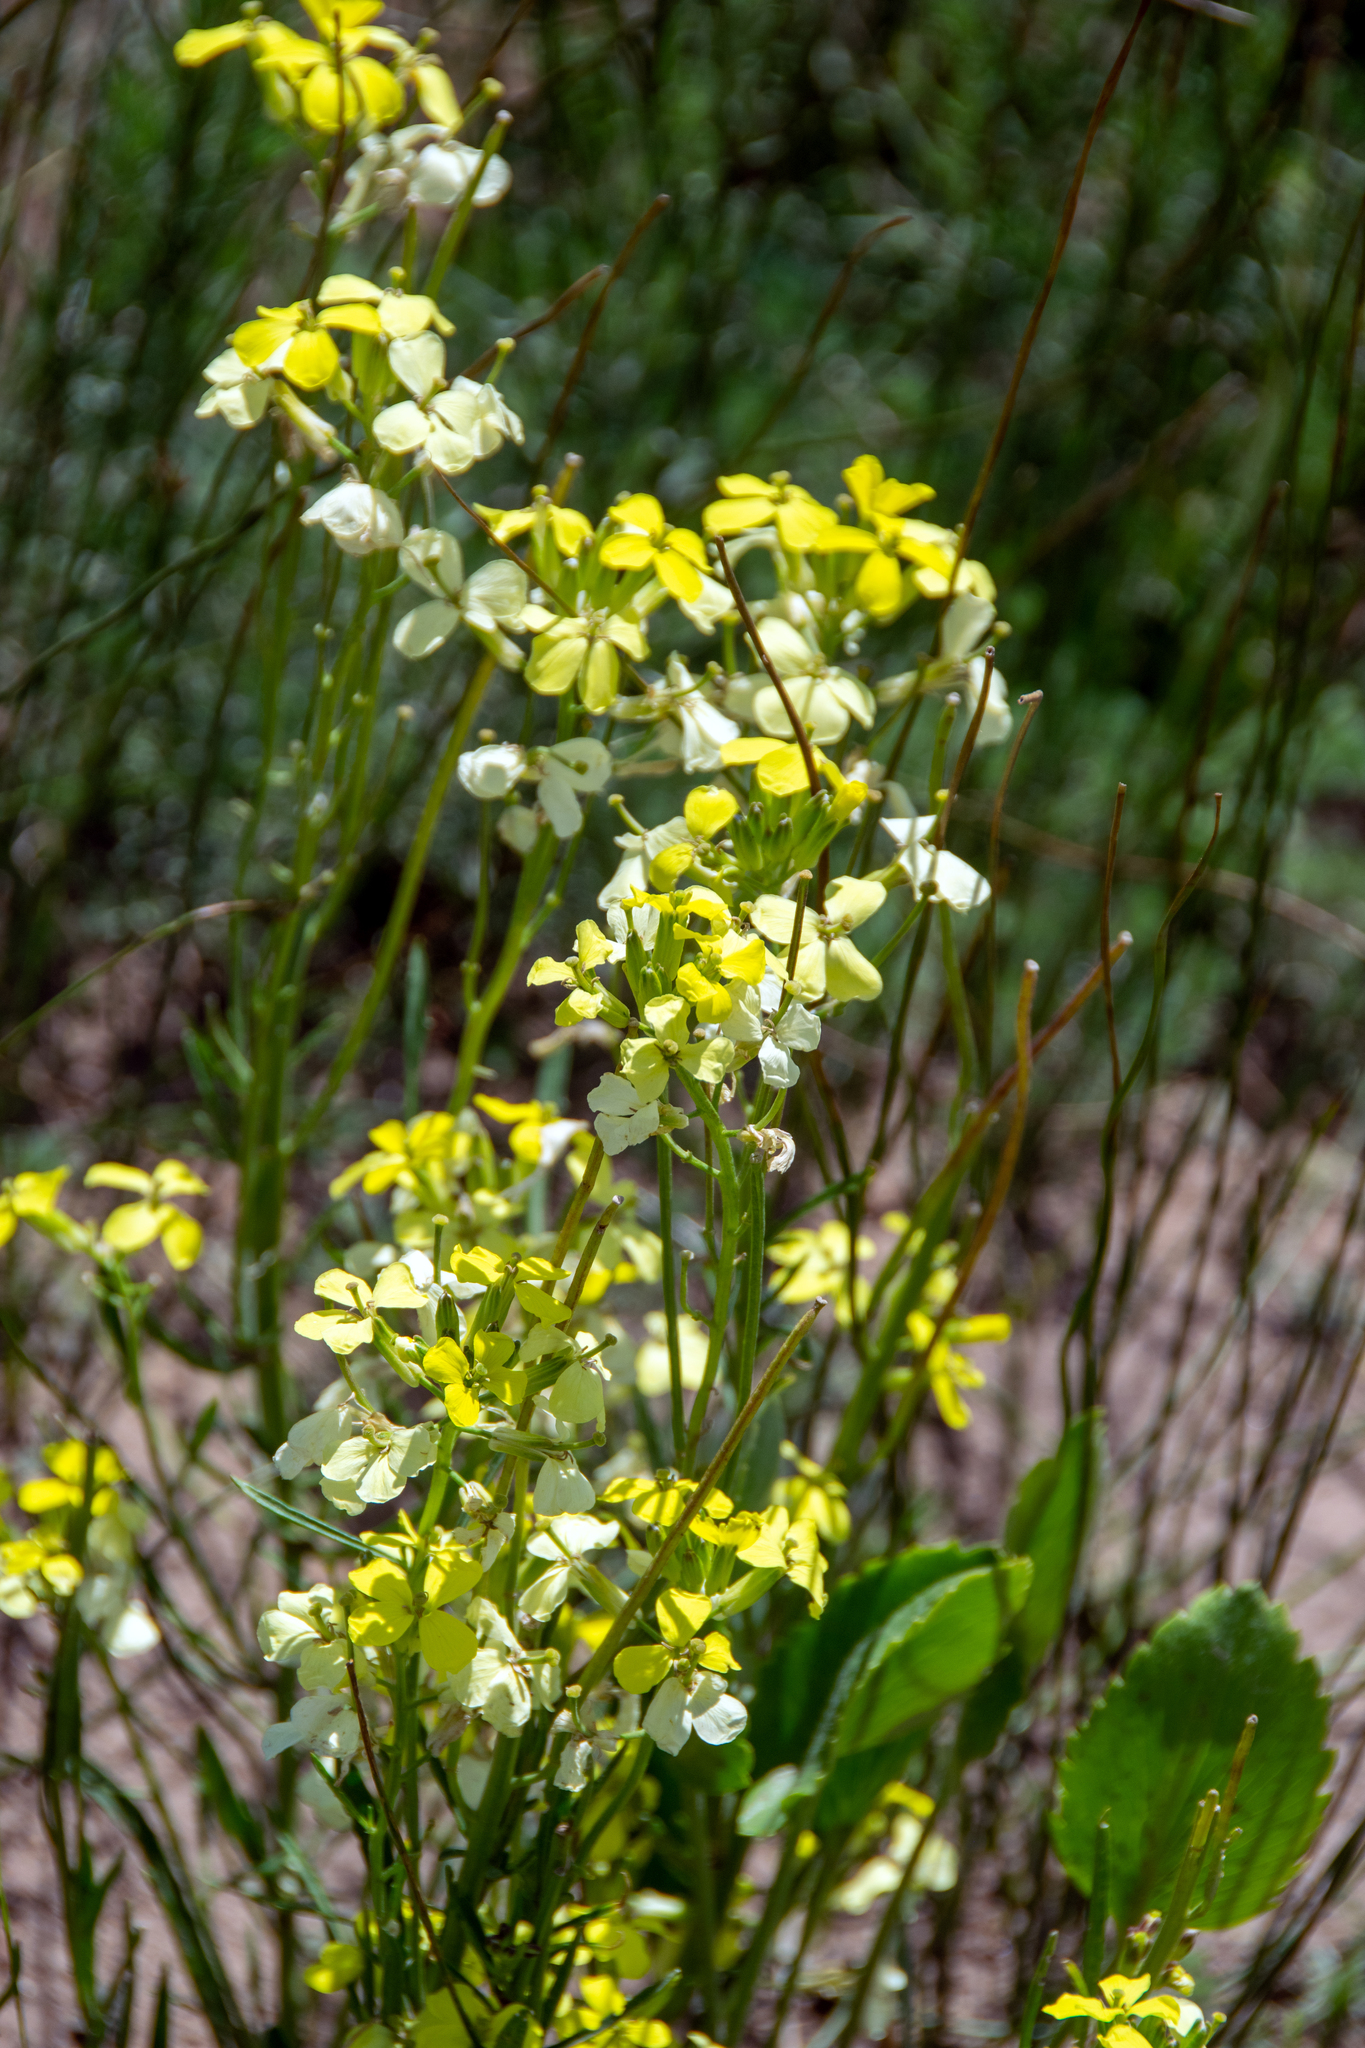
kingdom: Plantae
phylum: Tracheophyta
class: Magnoliopsida
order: Brassicales
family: Brassicaceae
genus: Erysimum
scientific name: Erysimum capitatum
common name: Western wallflower
